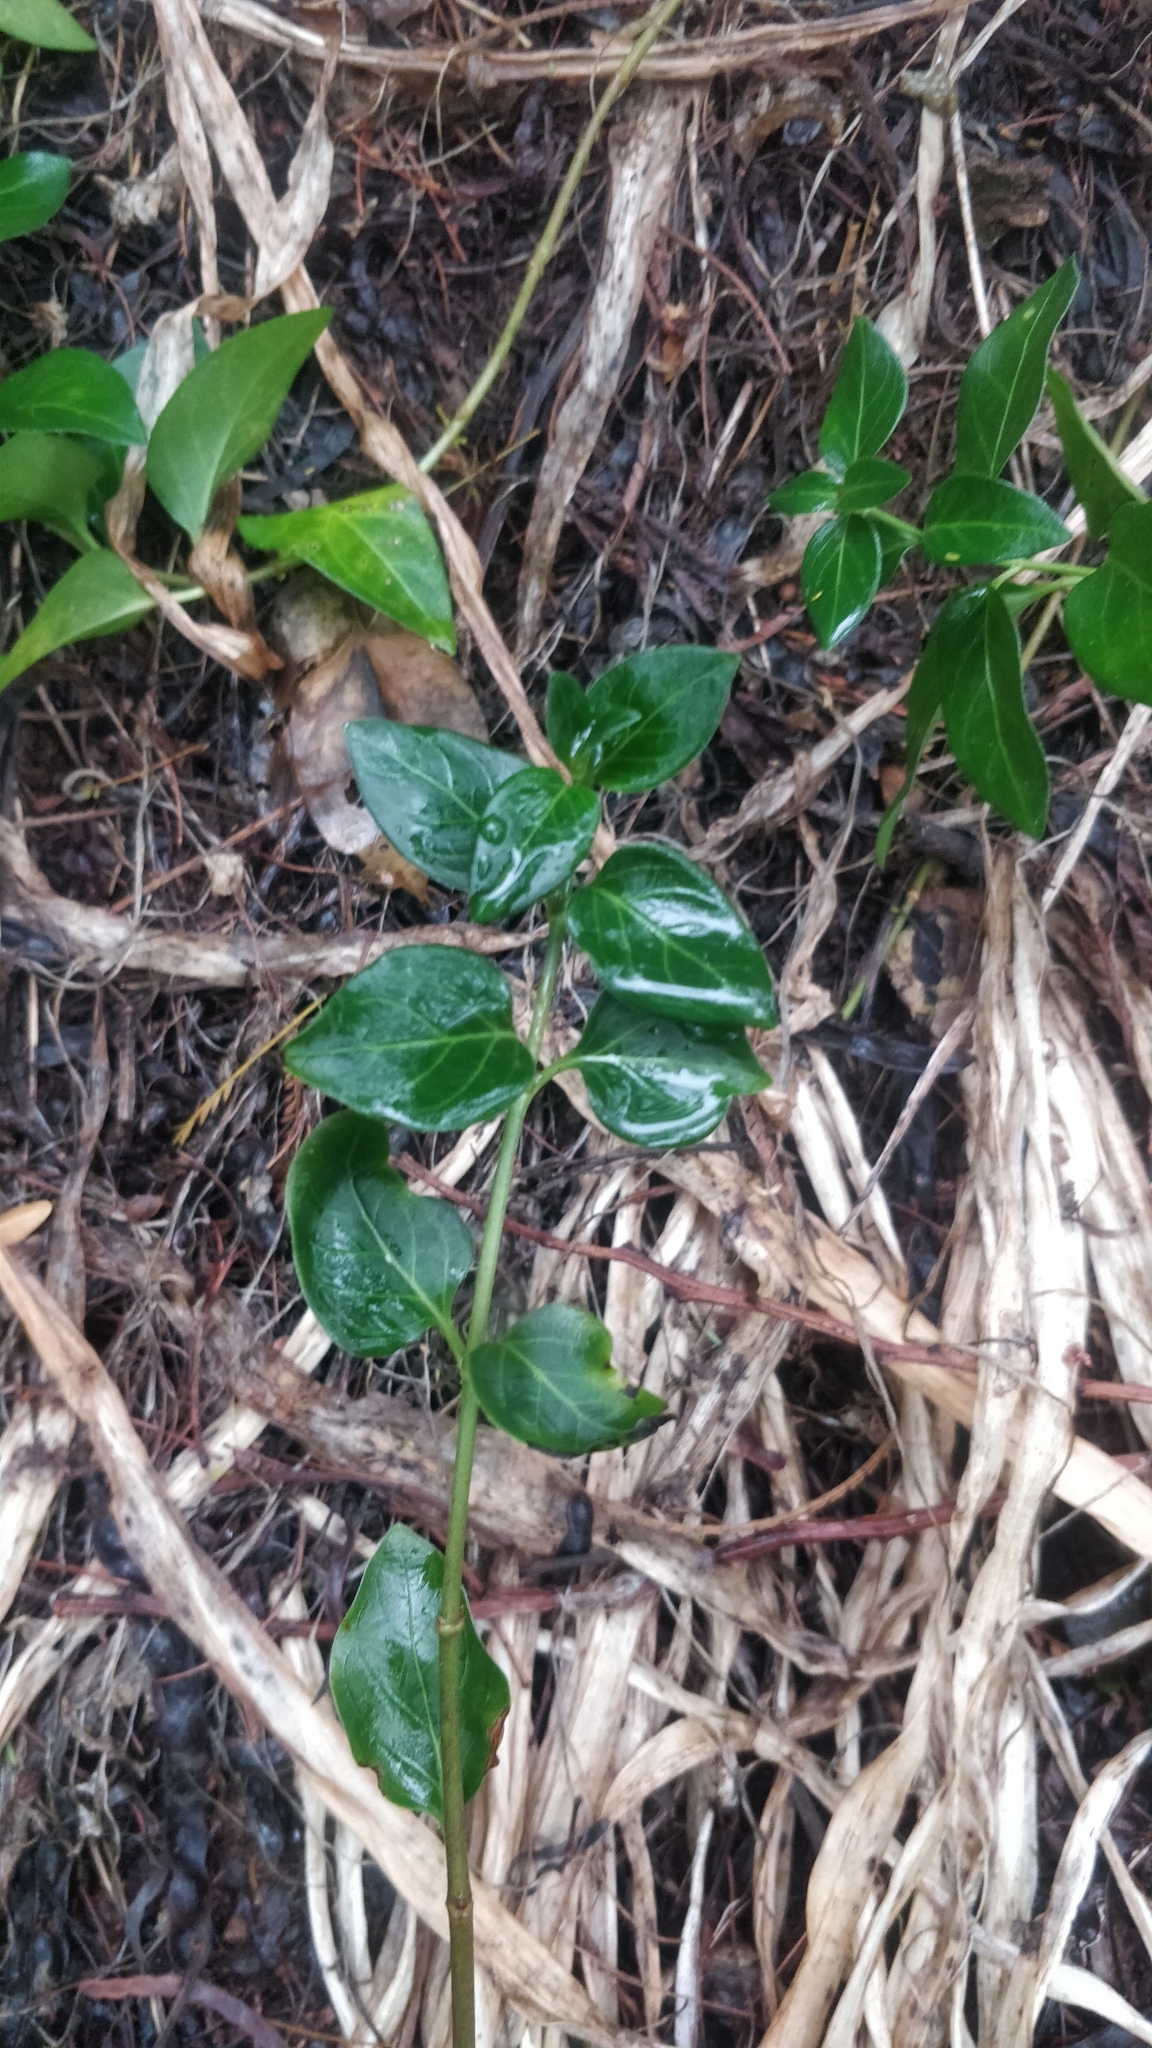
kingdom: Plantae
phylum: Tracheophyta
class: Magnoliopsida
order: Gentianales
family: Apocynaceae
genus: Vinca
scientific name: Vinca major
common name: Greater periwinkle
